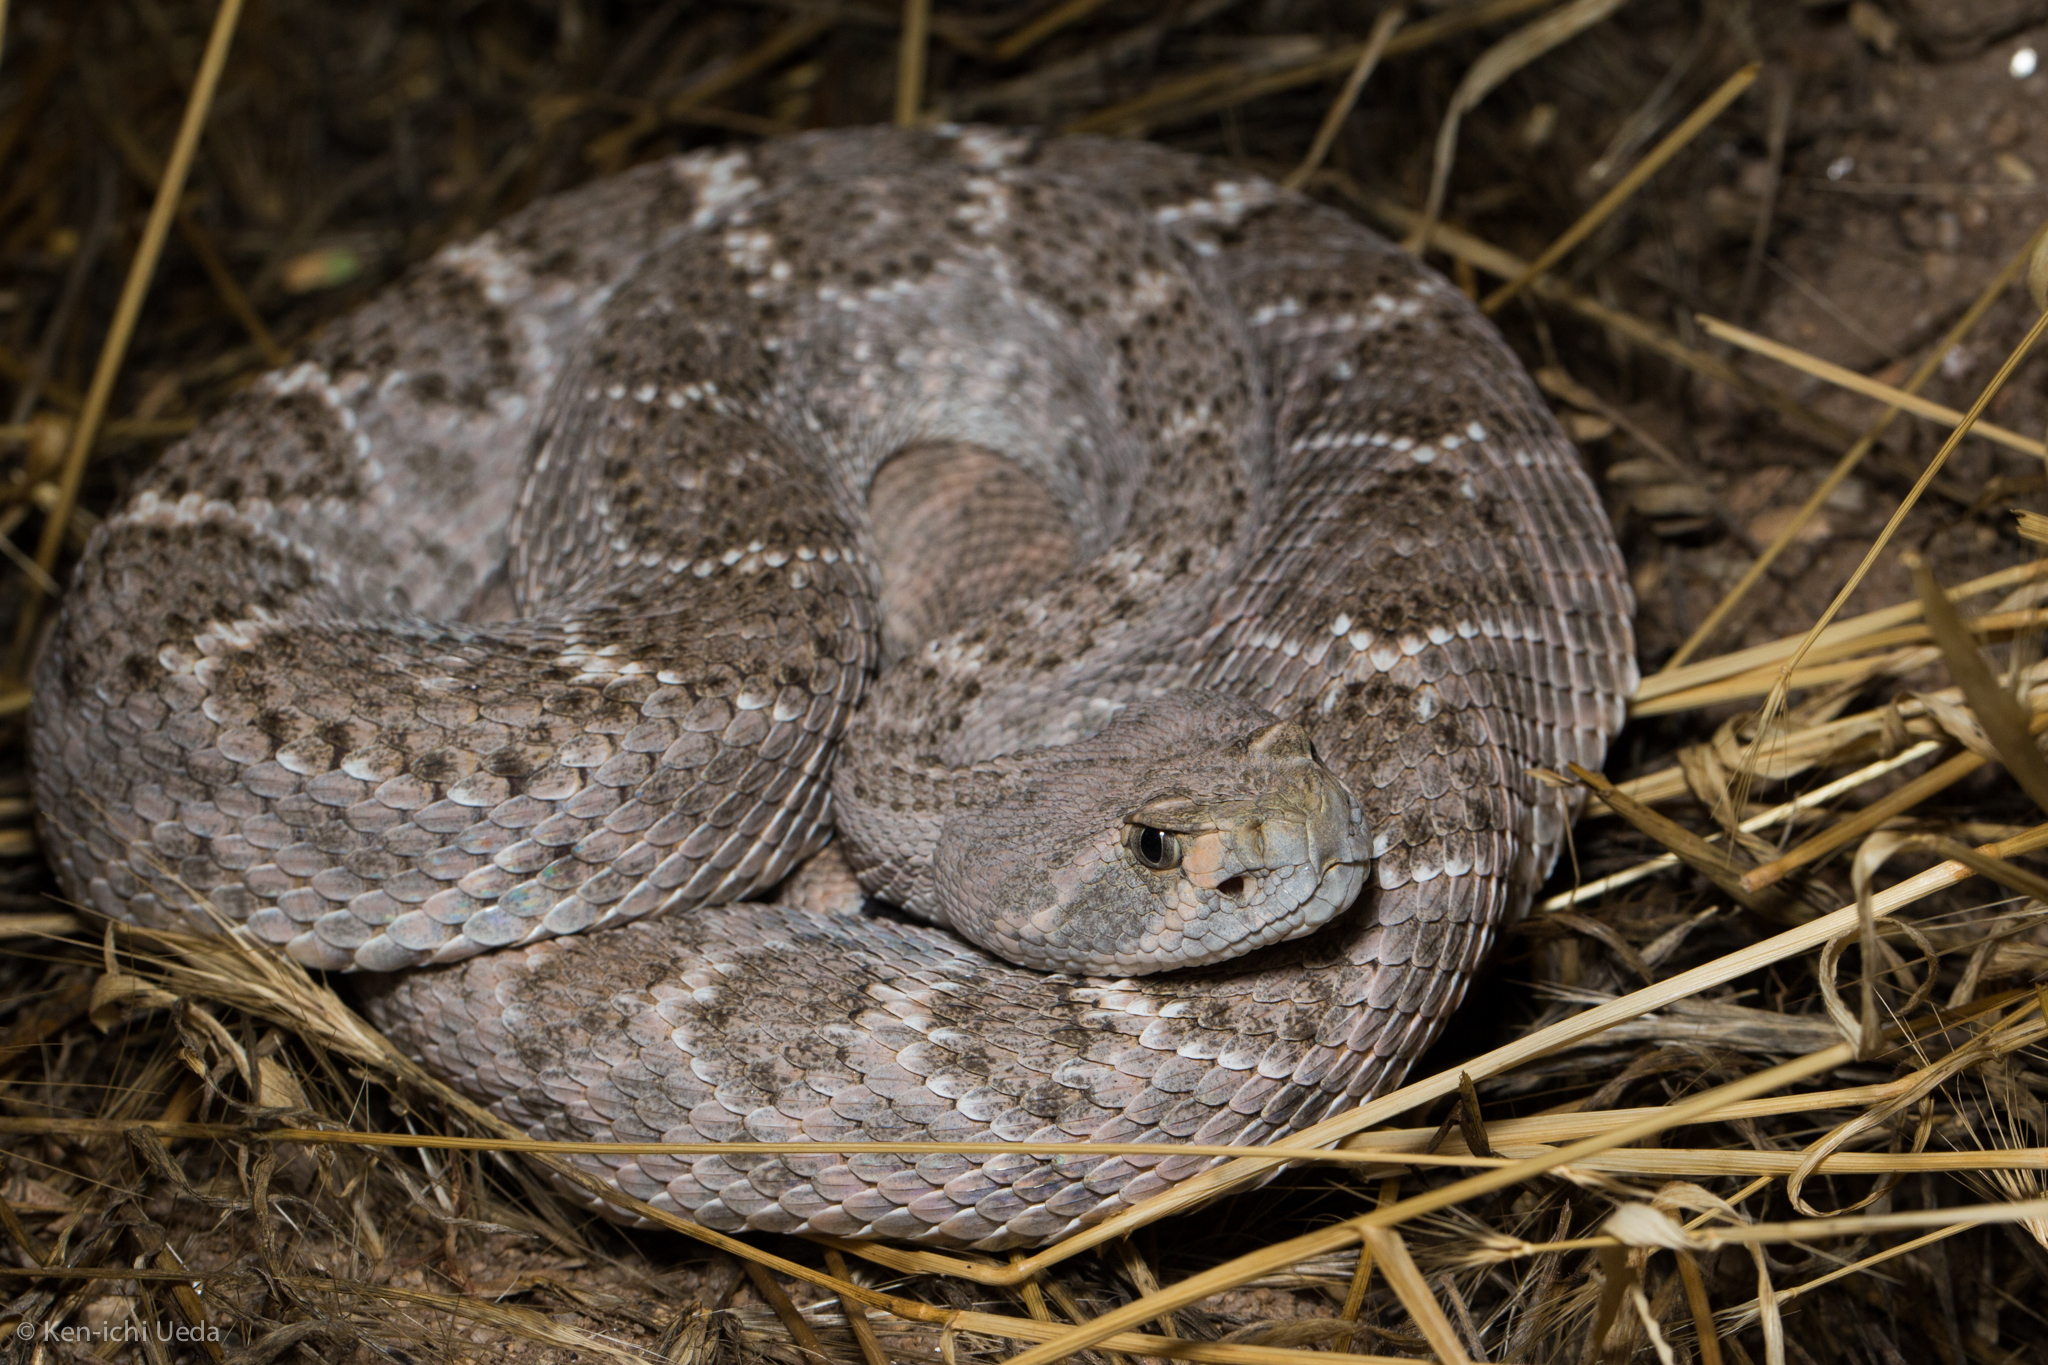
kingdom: Animalia
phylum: Chordata
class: Squamata
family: Viperidae
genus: Crotalus
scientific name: Crotalus atrox
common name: Western diamond-backed rattlesnake
